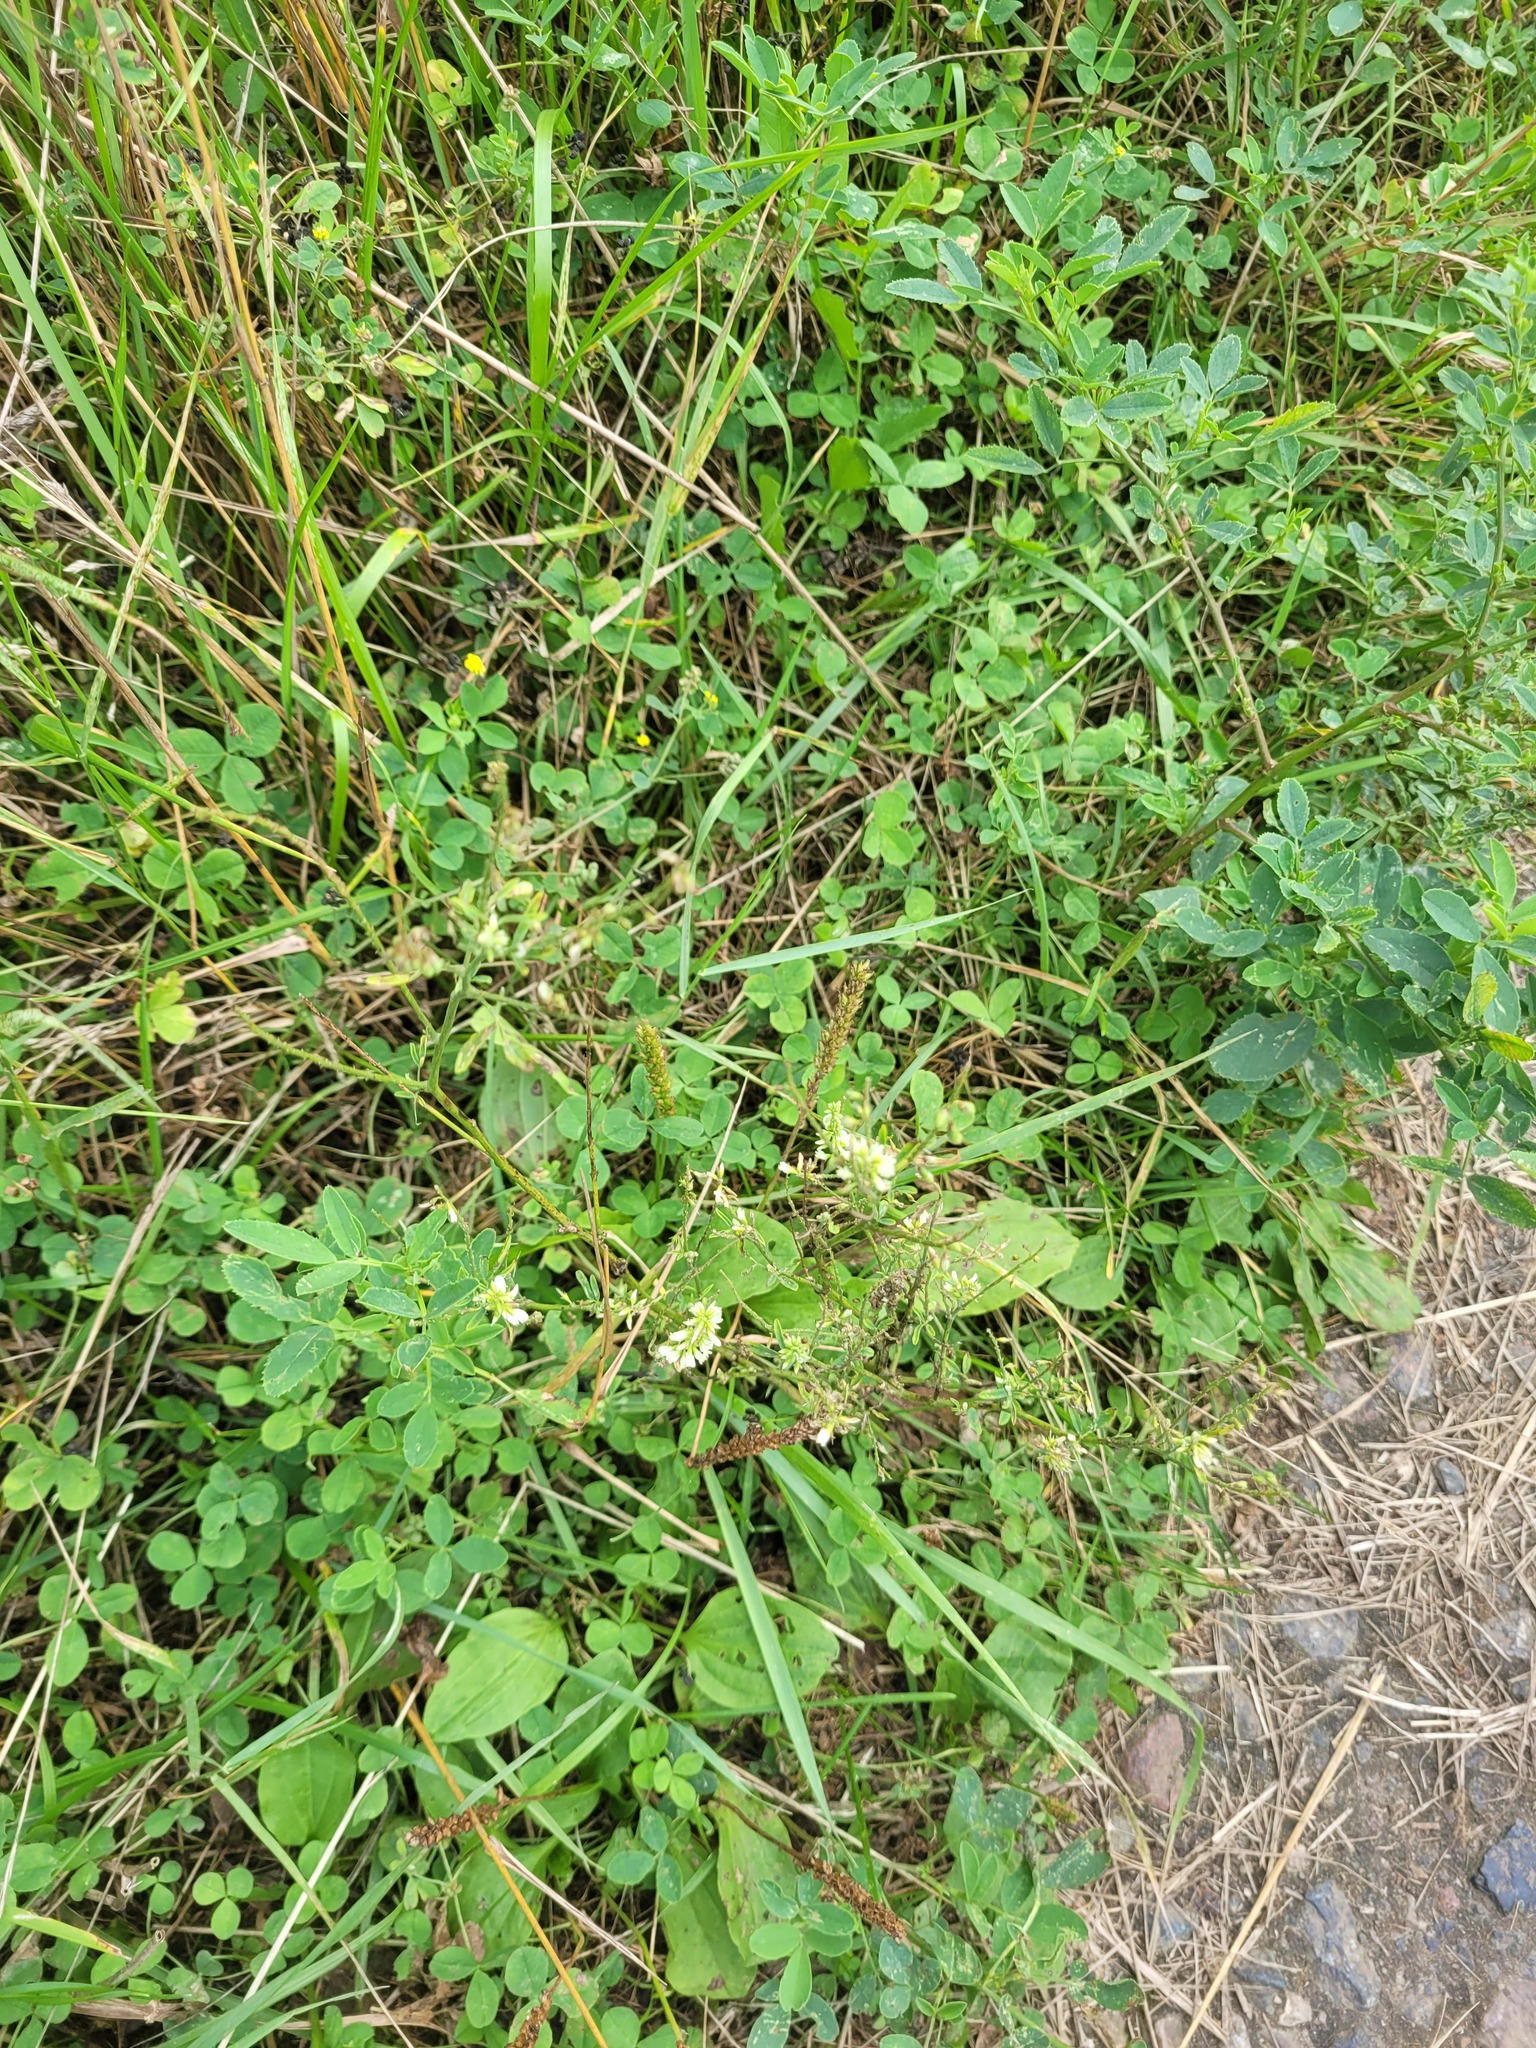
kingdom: Plantae
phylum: Tracheophyta
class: Magnoliopsida
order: Fabales
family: Fabaceae
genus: Melilotus
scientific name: Melilotus albus
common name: White melilot
